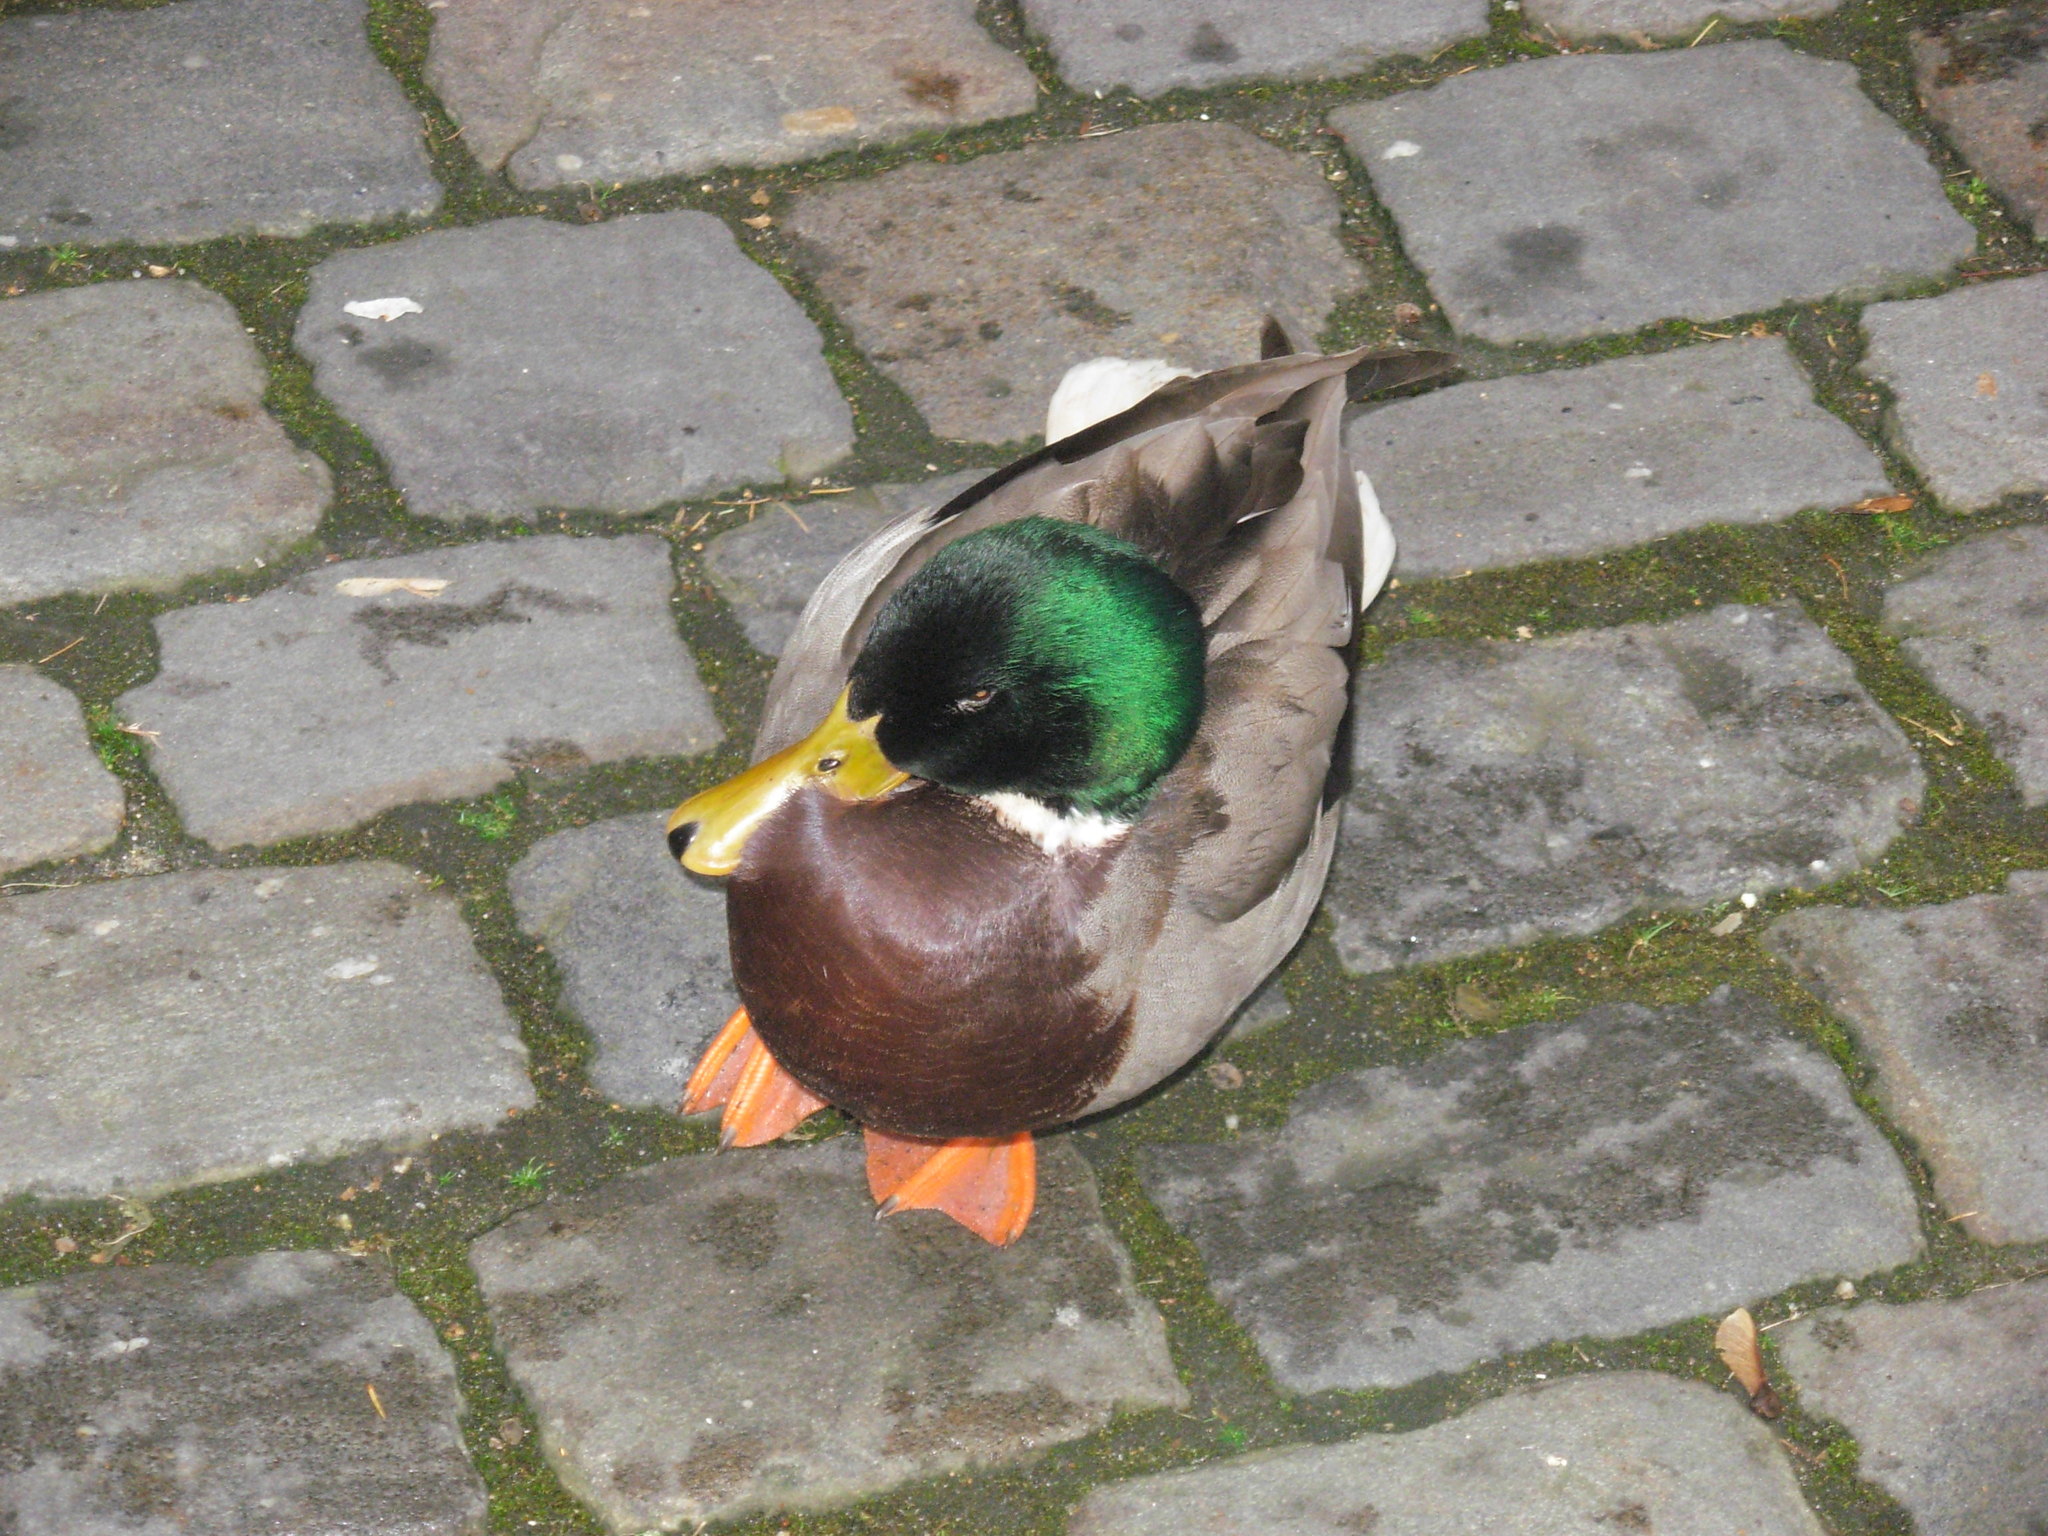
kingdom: Animalia
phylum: Chordata
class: Aves
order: Anseriformes
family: Anatidae
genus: Anas
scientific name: Anas platyrhynchos
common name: Mallard
